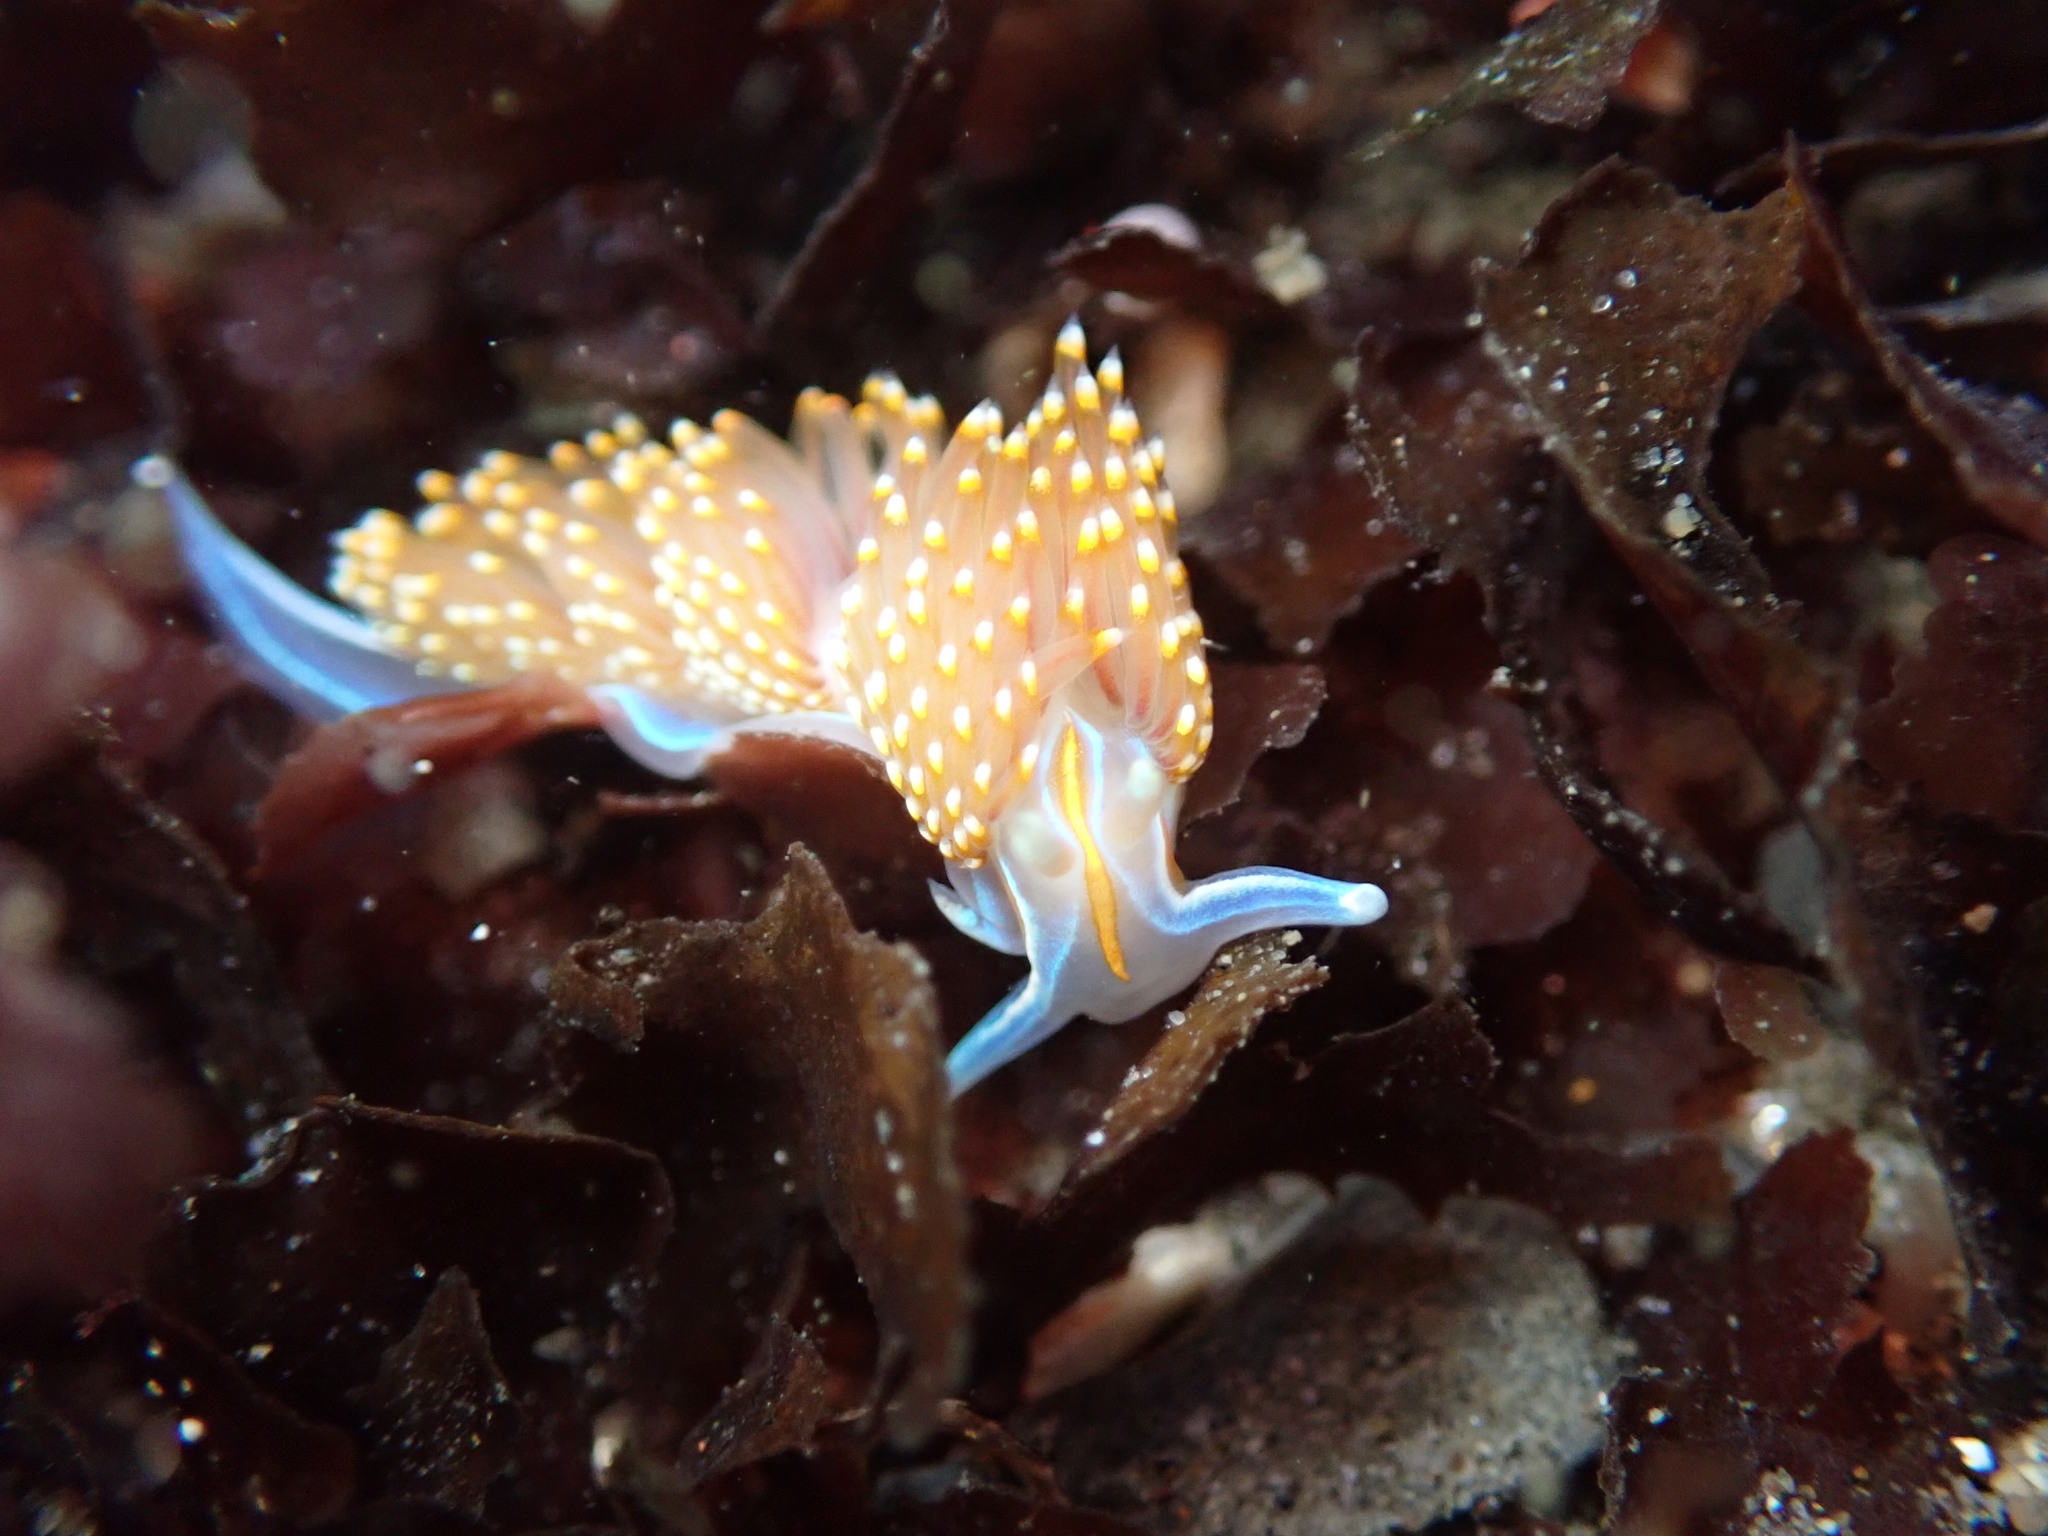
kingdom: Animalia
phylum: Mollusca
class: Gastropoda
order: Nudibranchia
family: Myrrhinidae
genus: Hermissenda
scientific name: Hermissenda opalescens
